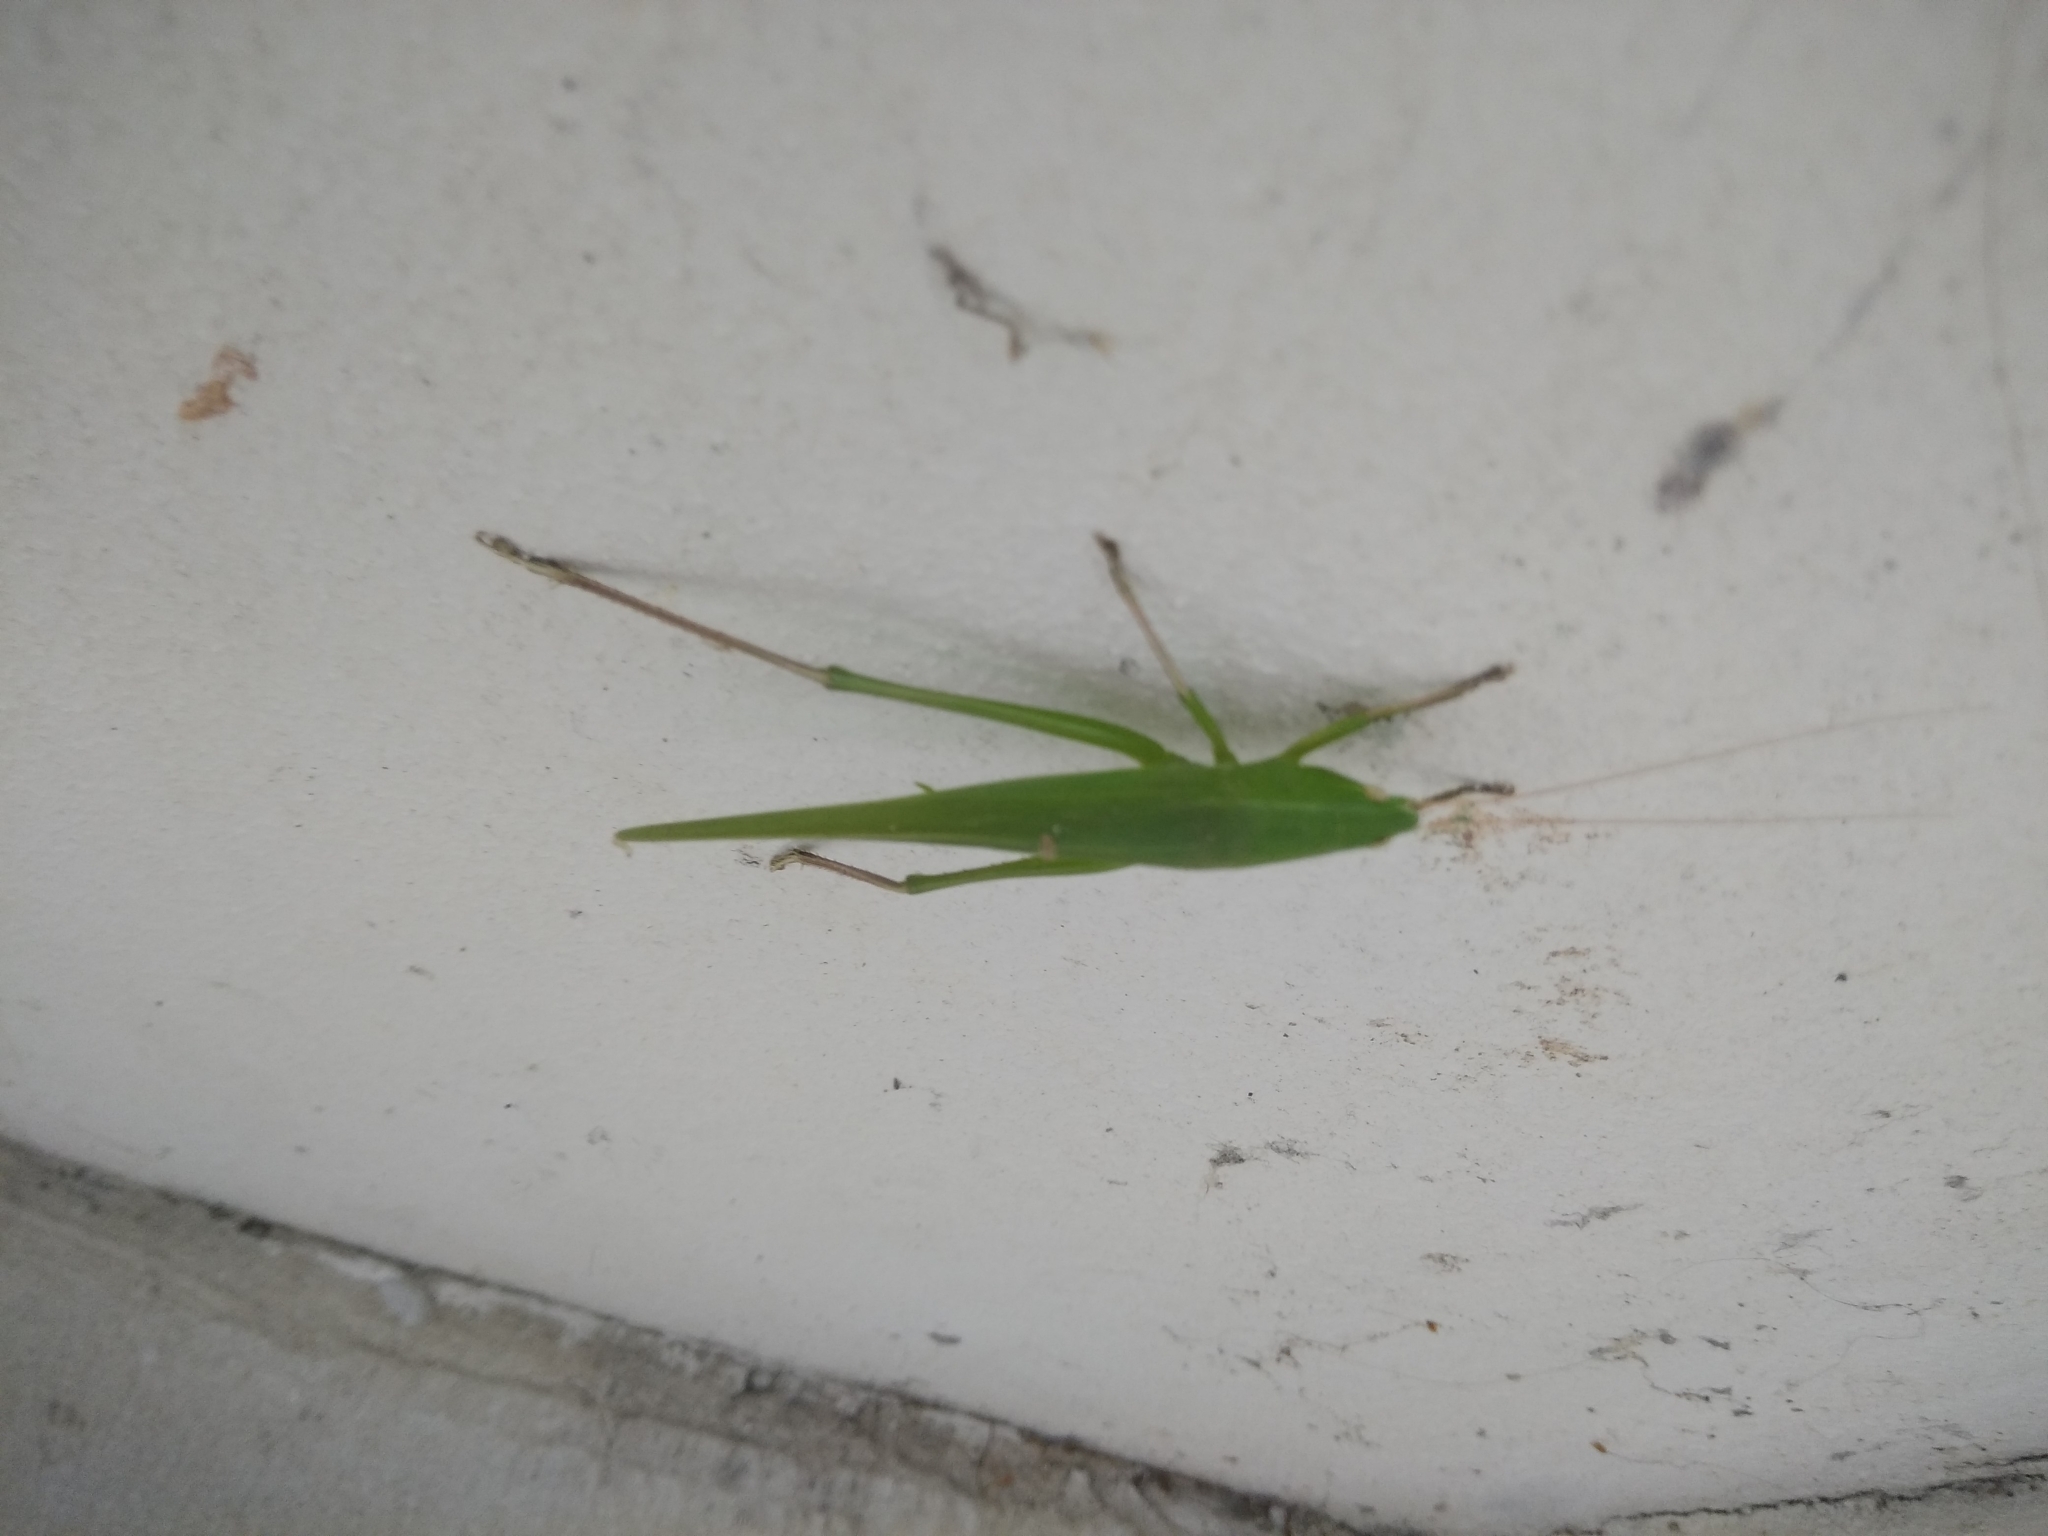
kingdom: Animalia
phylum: Arthropoda
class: Insecta
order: Orthoptera
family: Tettigoniidae
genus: Neoconocephalus
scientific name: Neoconocephalus triops
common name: Broad-tipped conehead
